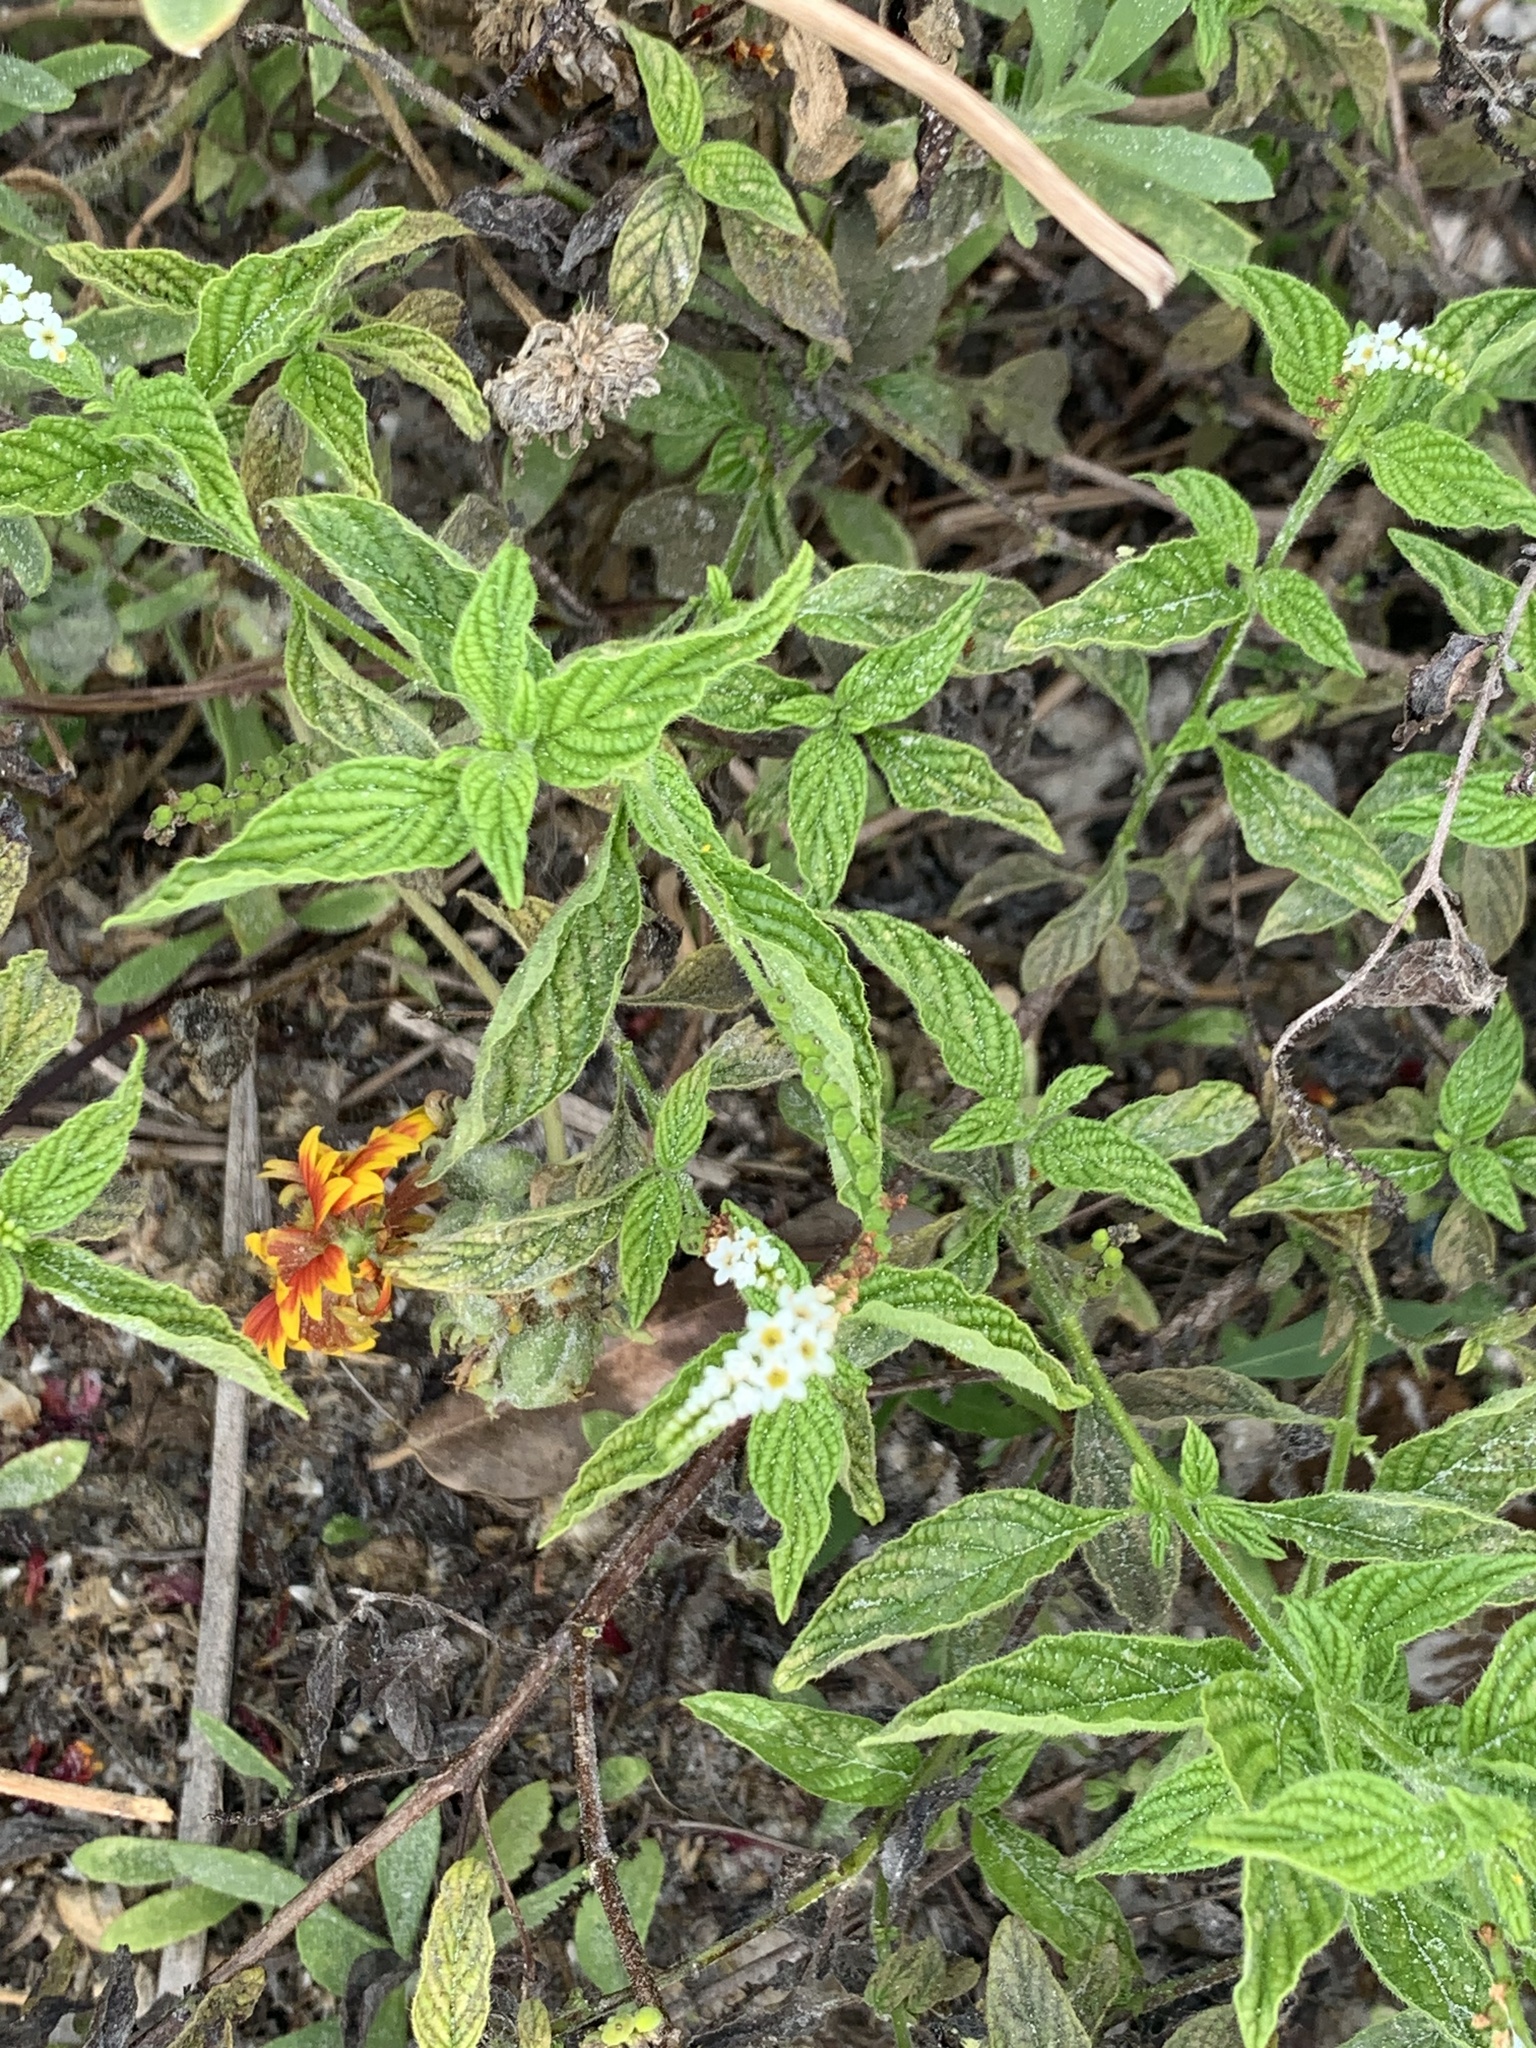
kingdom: Plantae
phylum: Tracheophyta
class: Magnoliopsida
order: Boraginales
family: Heliotropiaceae
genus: Heliotropium
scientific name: Heliotropium angiospermum
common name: Eye bright
